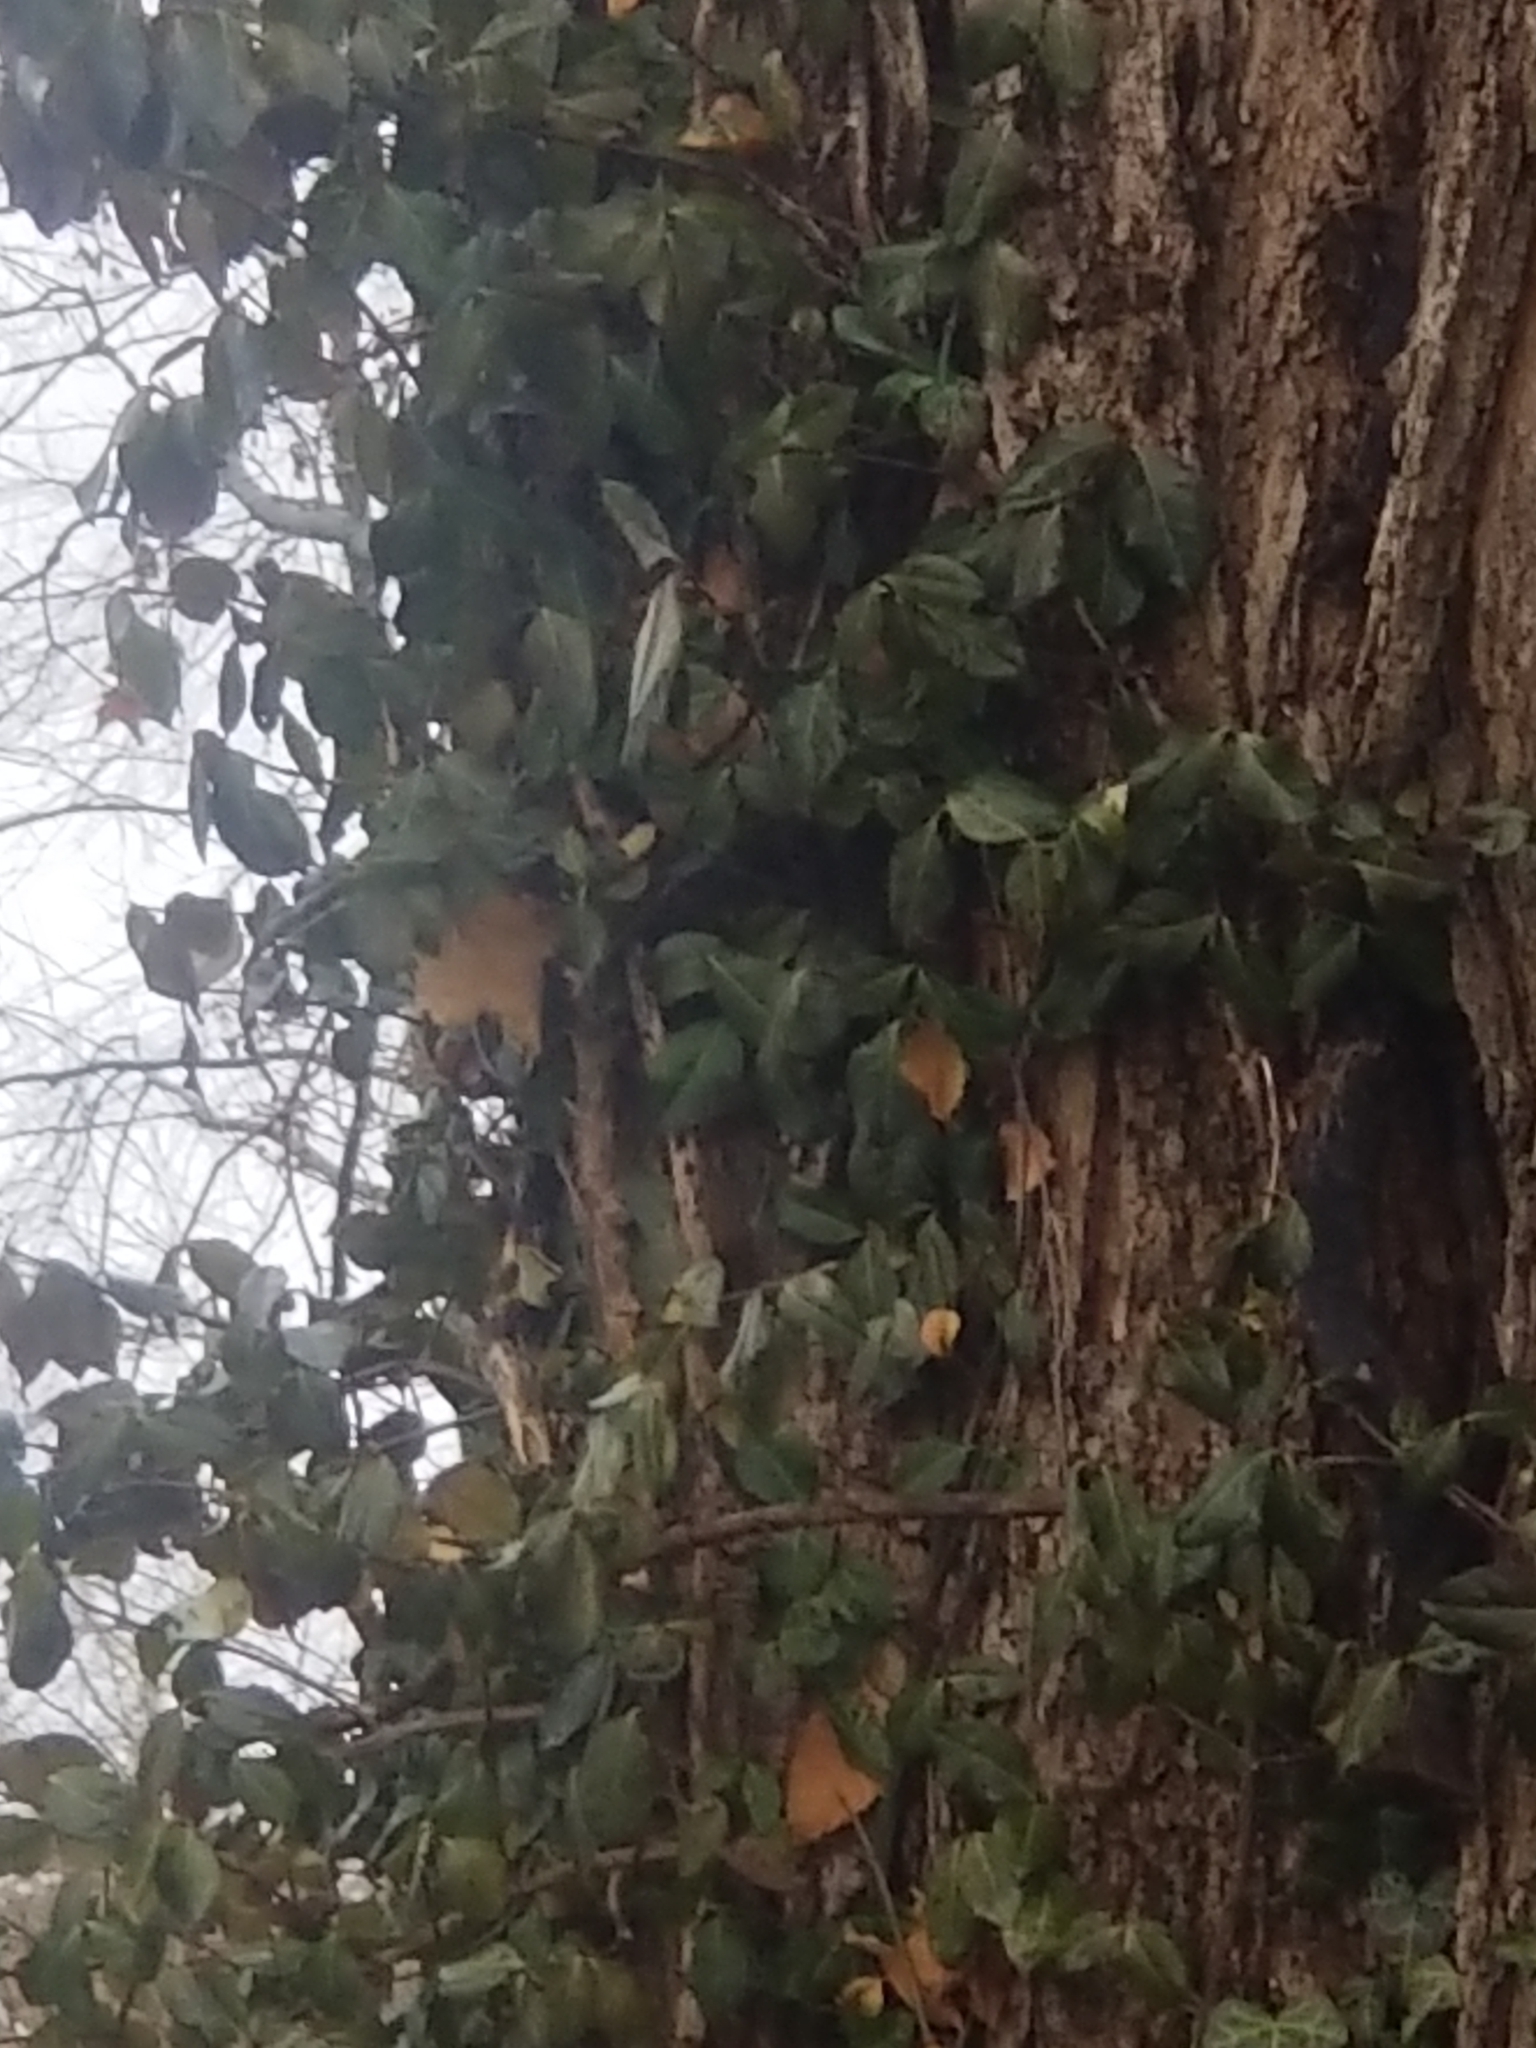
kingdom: Plantae
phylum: Tracheophyta
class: Magnoliopsida
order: Celastrales
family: Celastraceae
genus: Euonymus
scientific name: Euonymus fortunei
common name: Climbing euonymus
